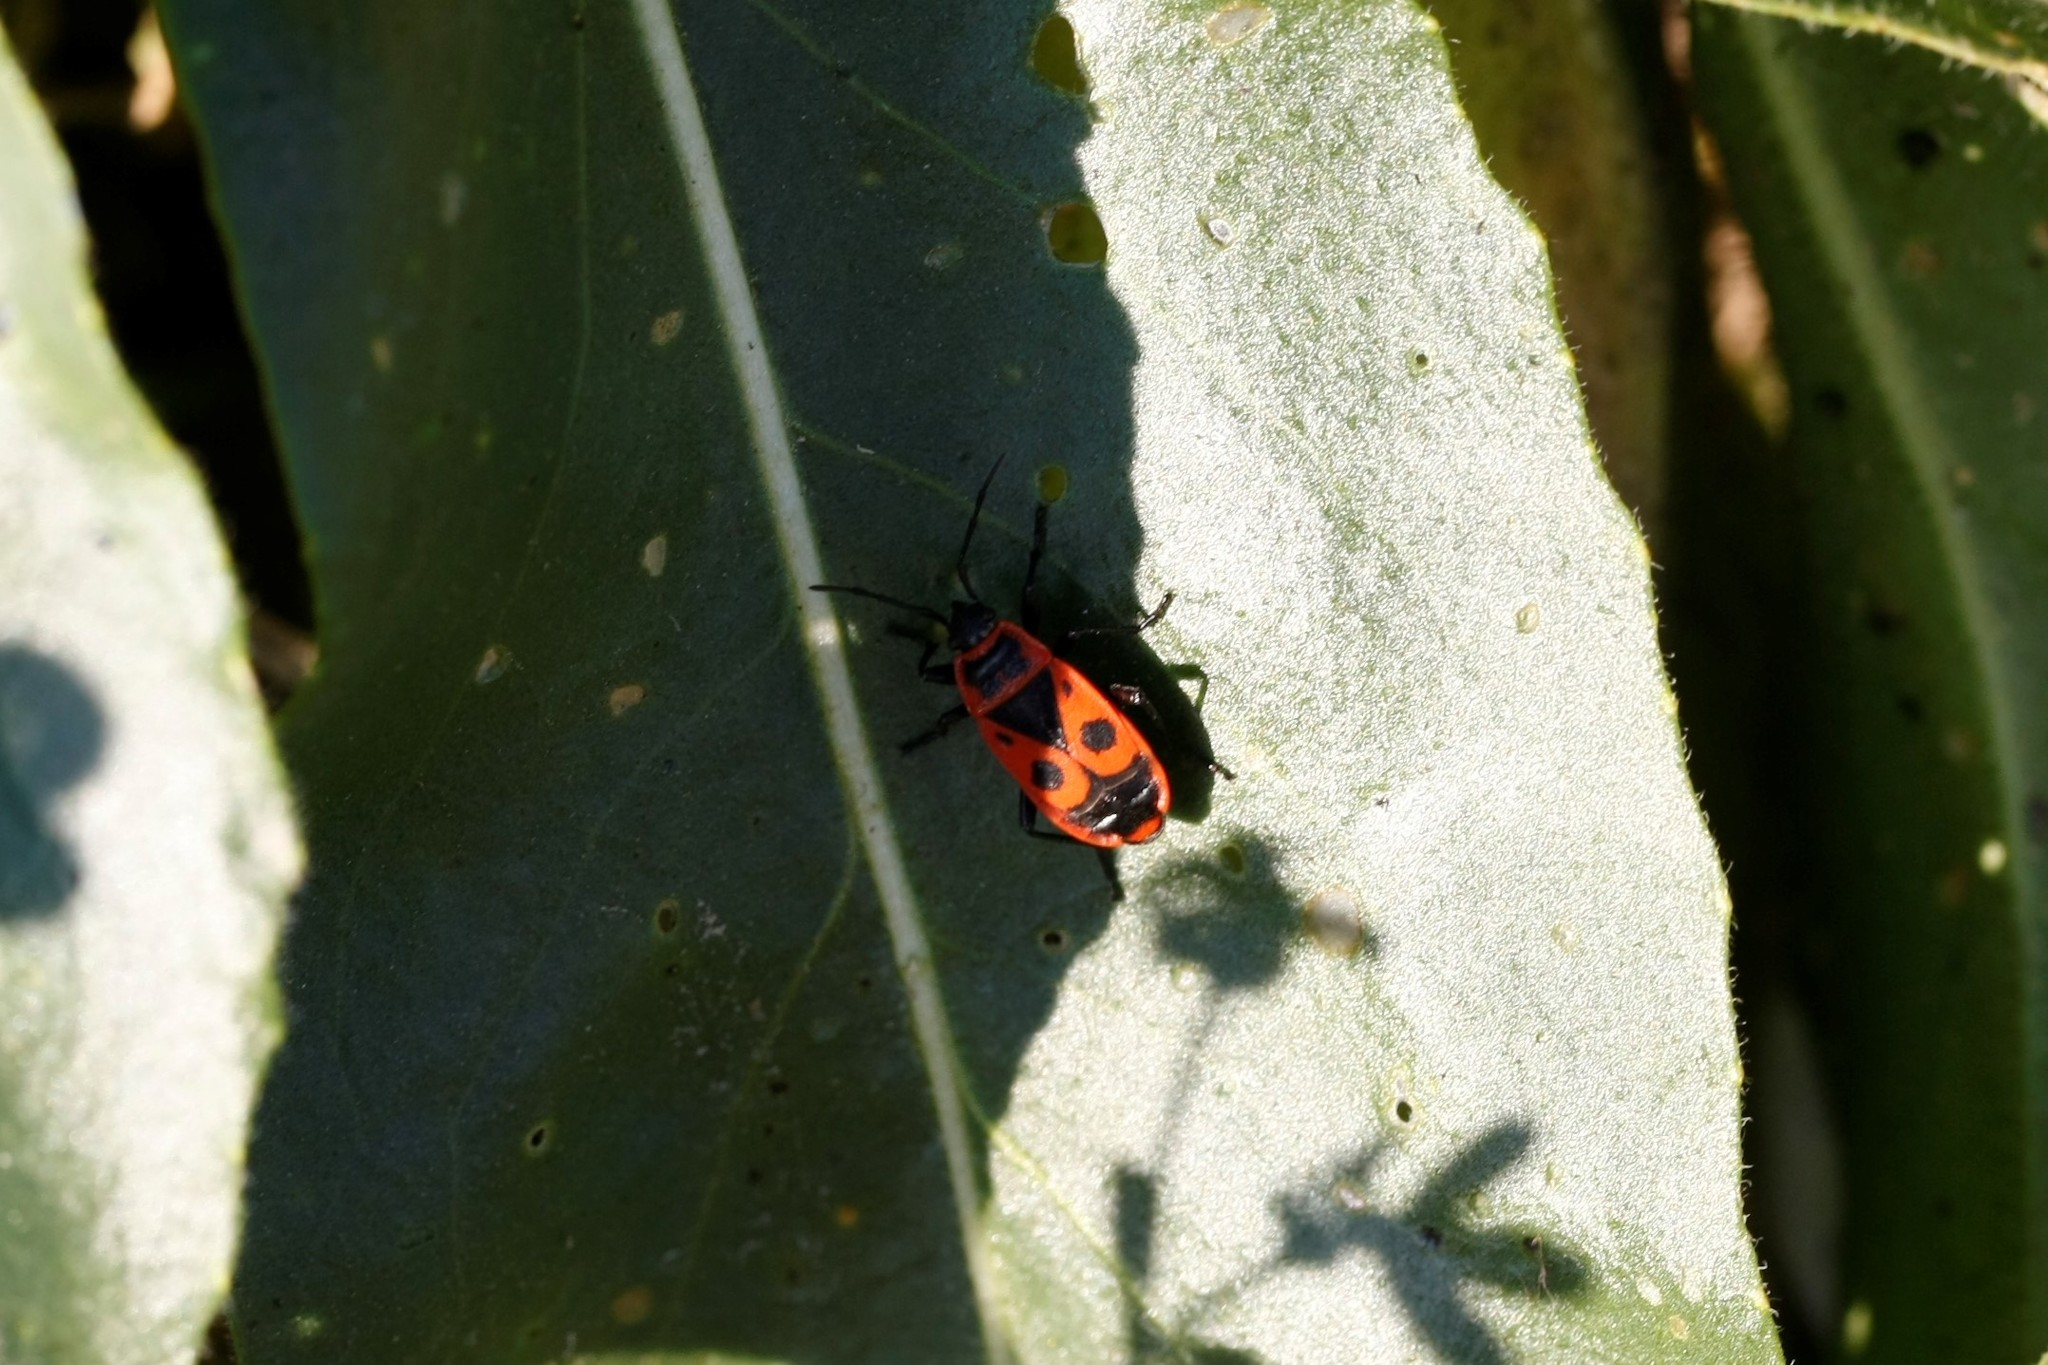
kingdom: Animalia
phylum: Arthropoda
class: Insecta
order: Hemiptera
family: Pyrrhocoridae
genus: Pyrrhocoris
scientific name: Pyrrhocoris apterus
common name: Firebug
